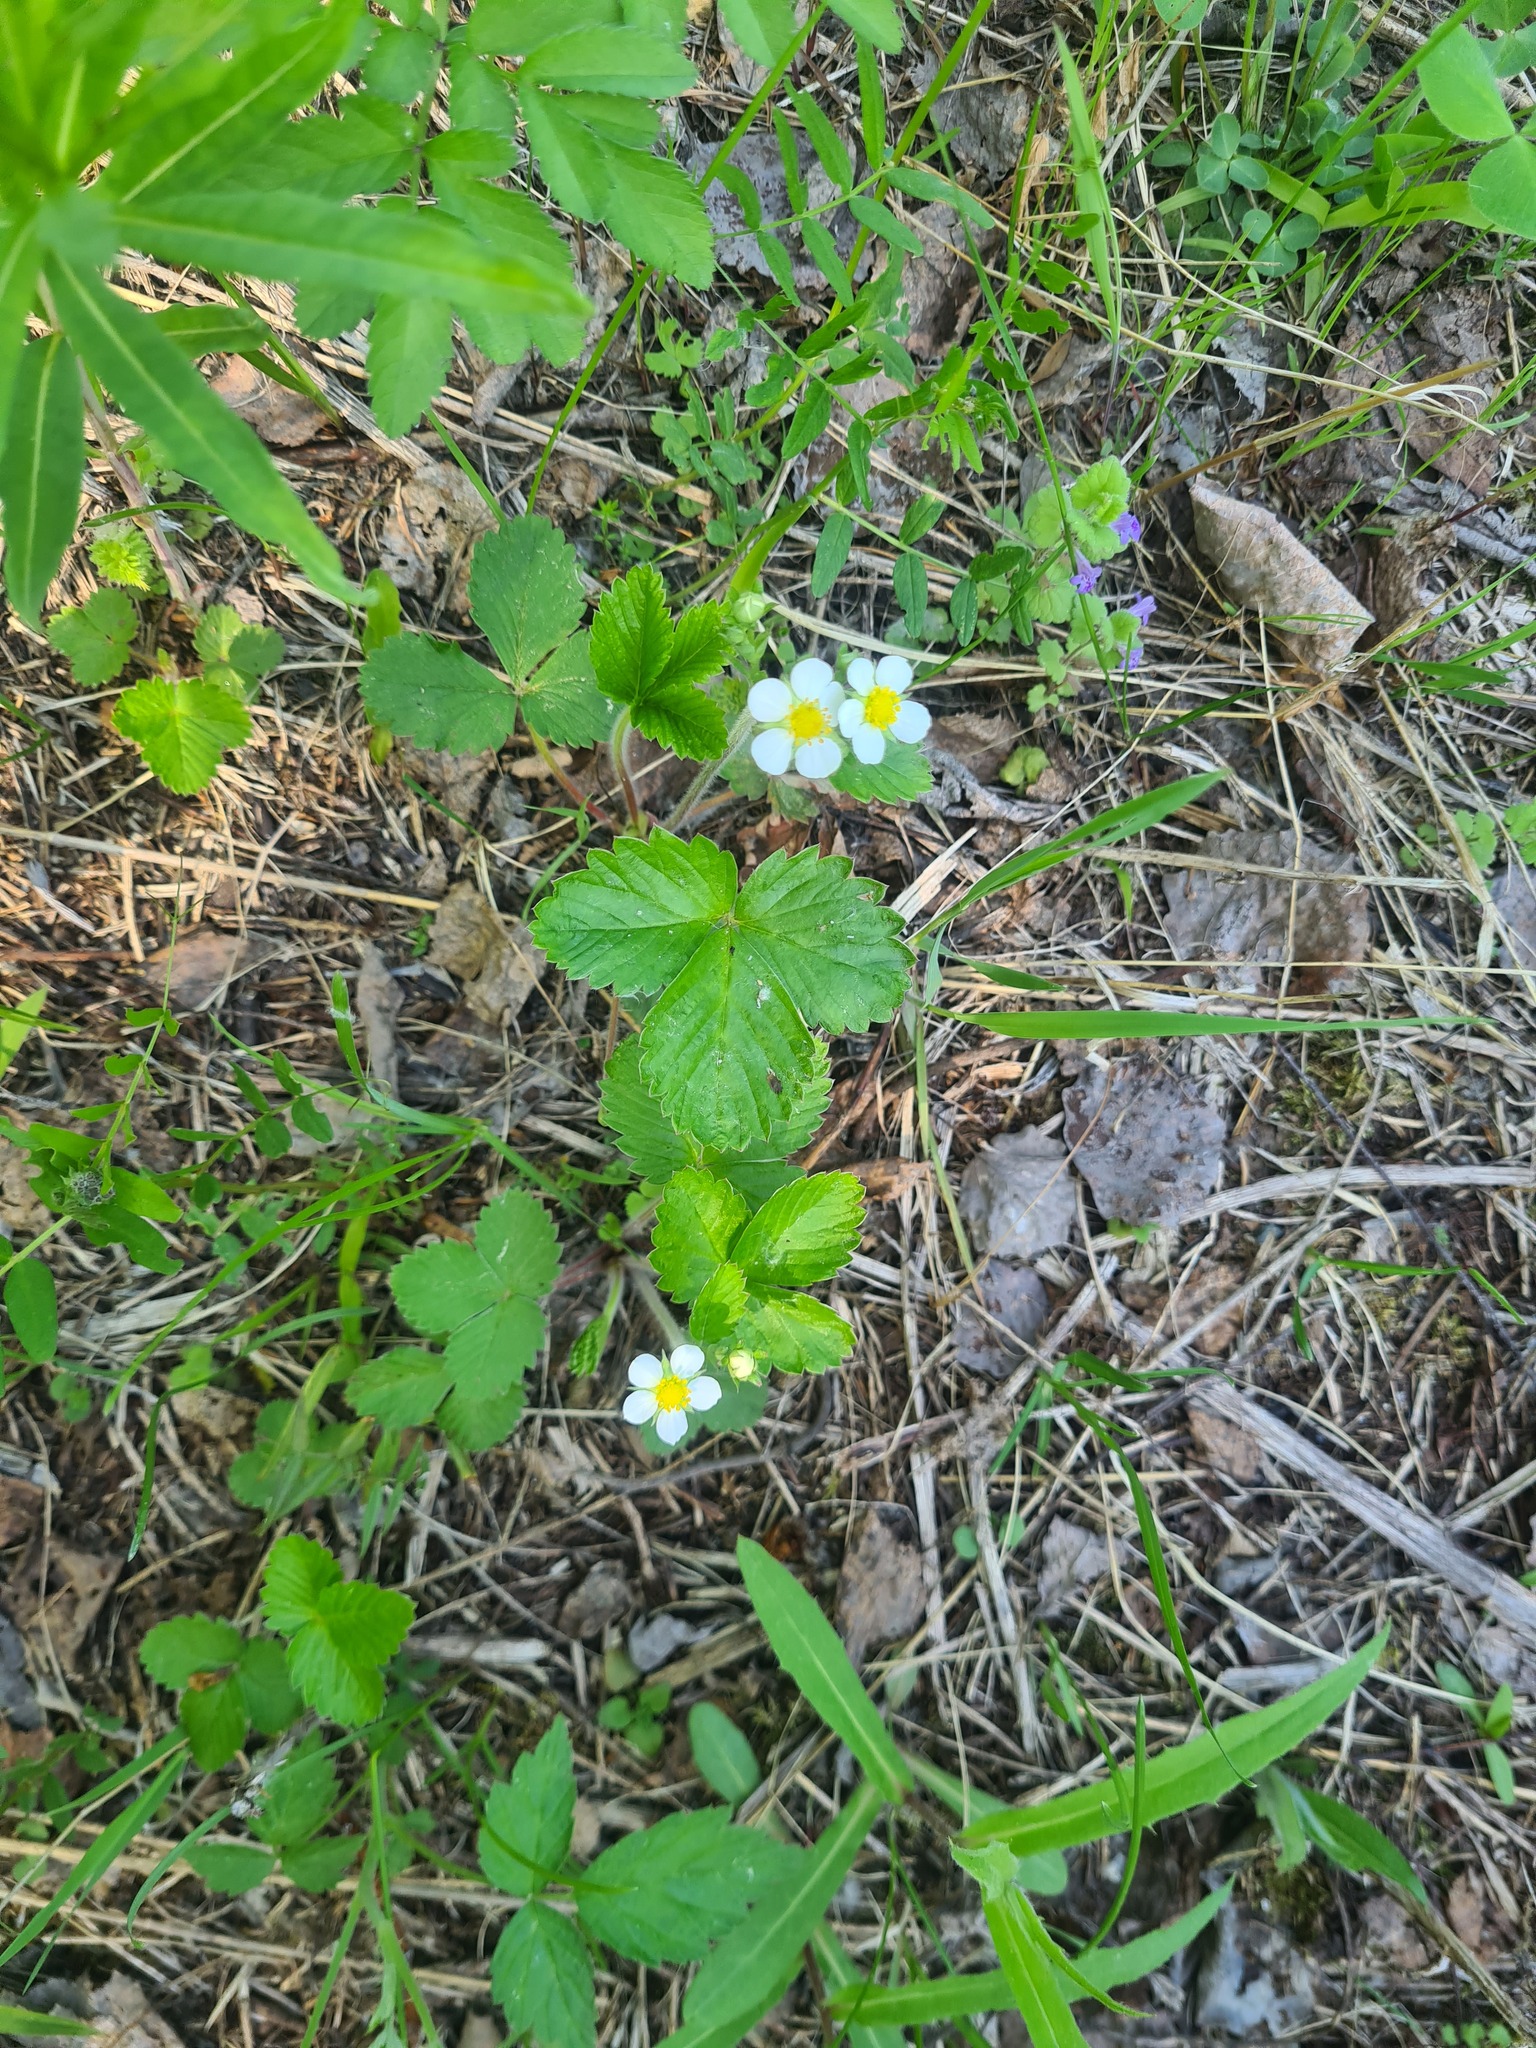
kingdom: Plantae
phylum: Tracheophyta
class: Magnoliopsida
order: Rosales
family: Rosaceae
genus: Fragaria
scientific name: Fragaria vesca
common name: Wild strawberry
